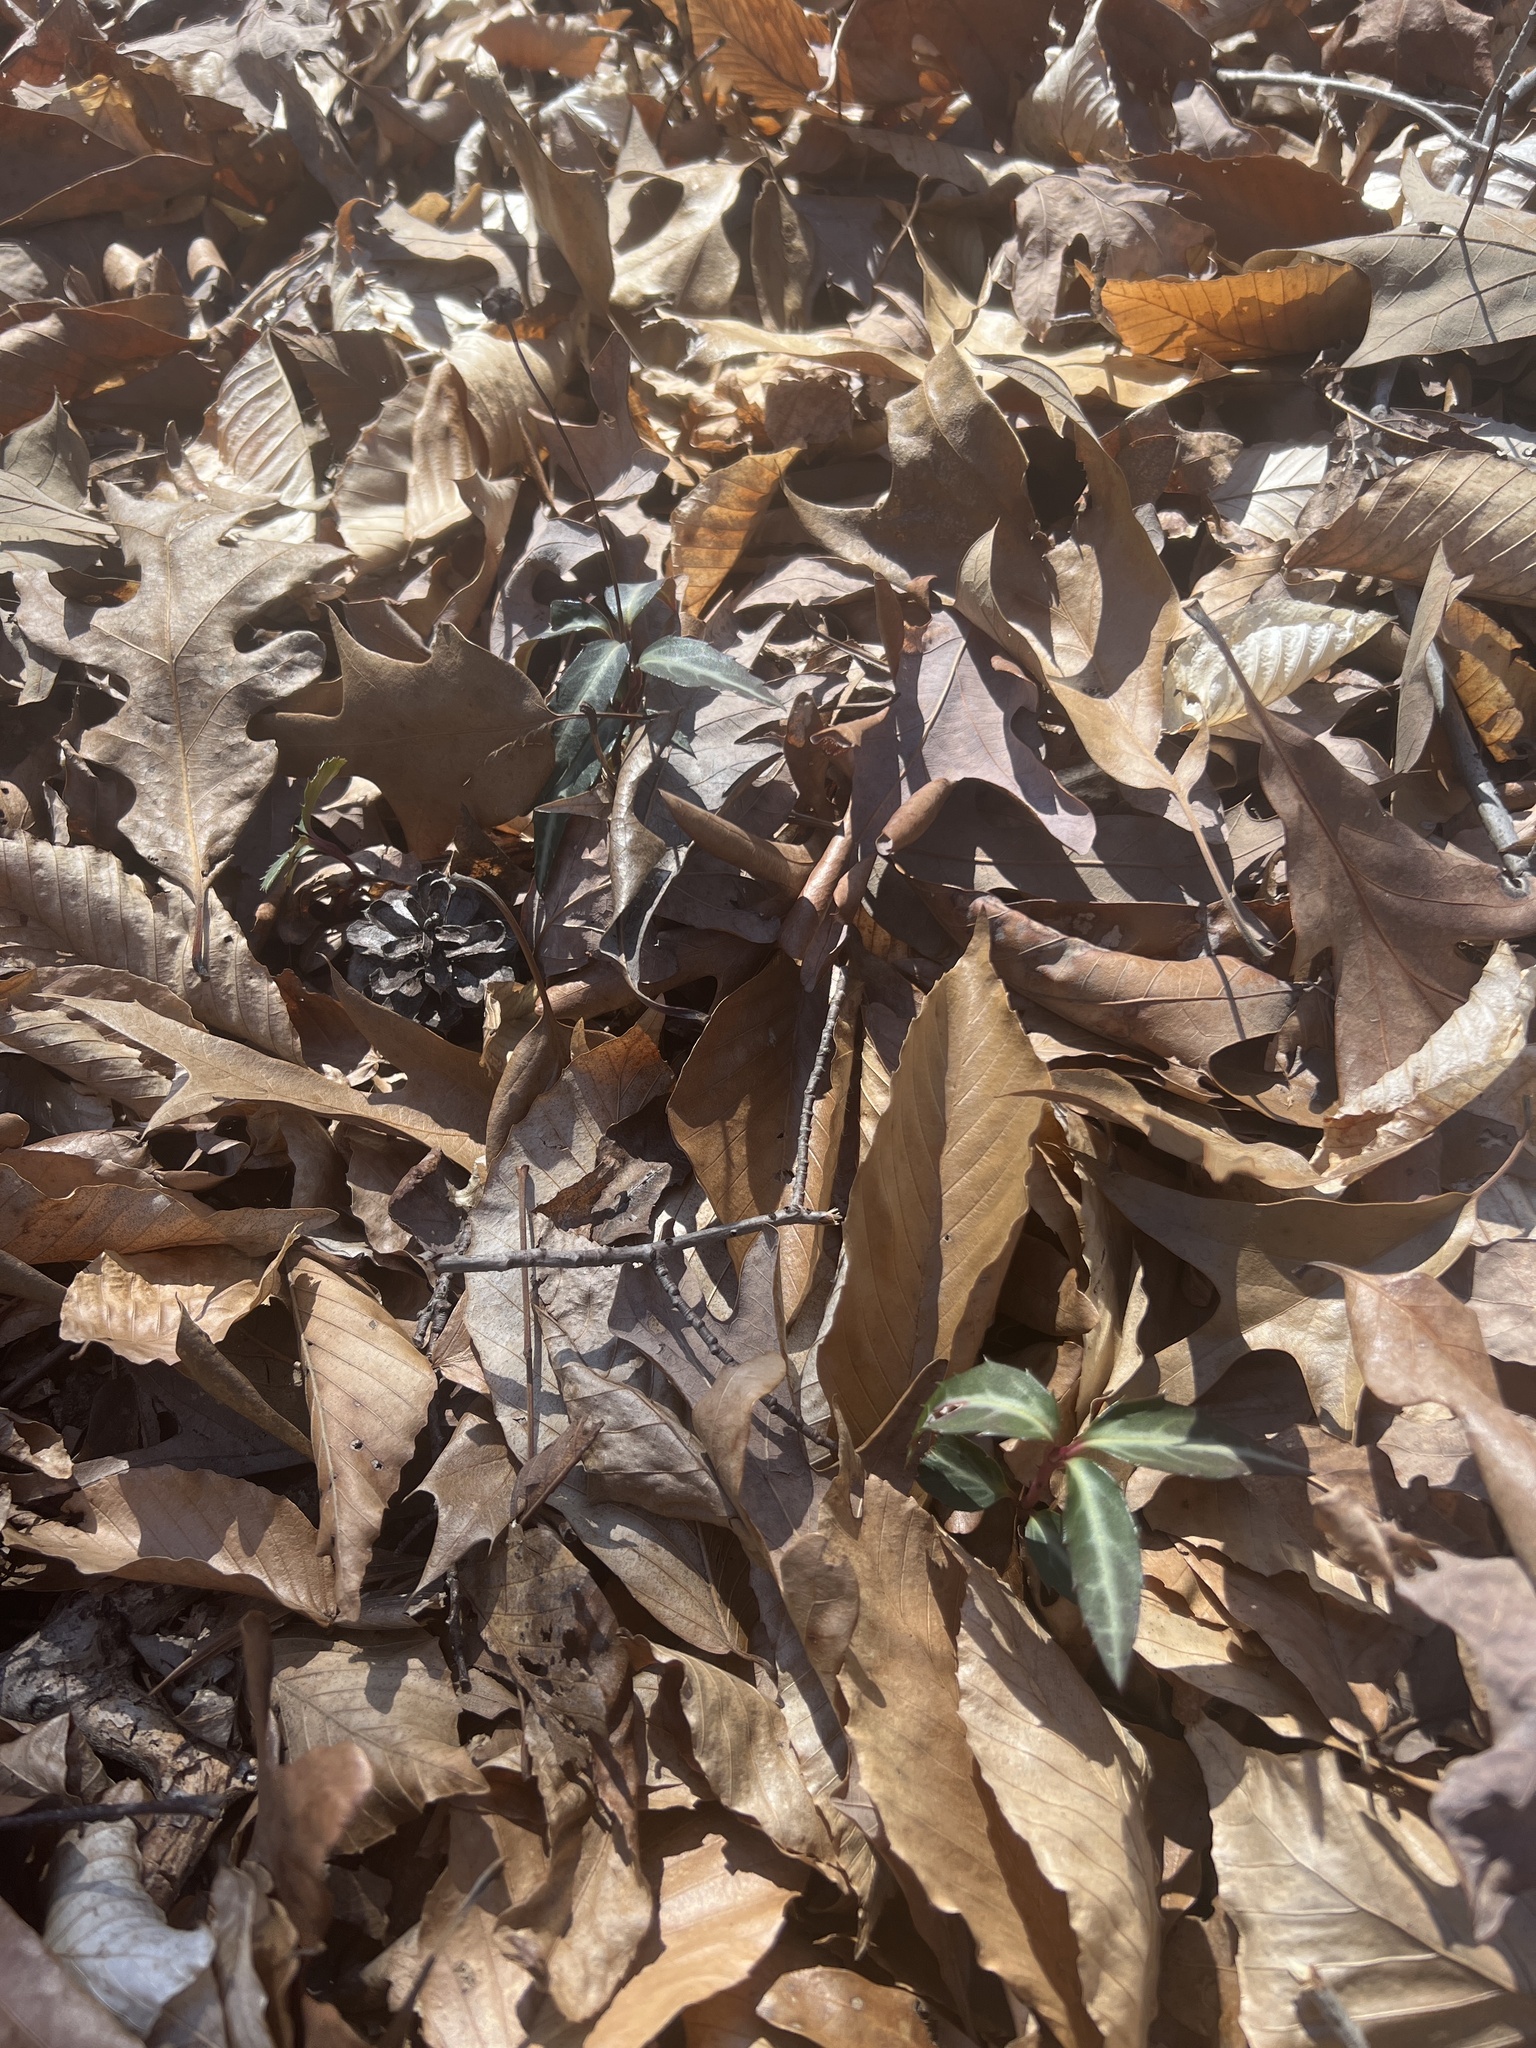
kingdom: Plantae
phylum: Tracheophyta
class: Magnoliopsida
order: Ericales
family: Ericaceae
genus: Chimaphila
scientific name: Chimaphila maculata
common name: Spotted pipsissewa
